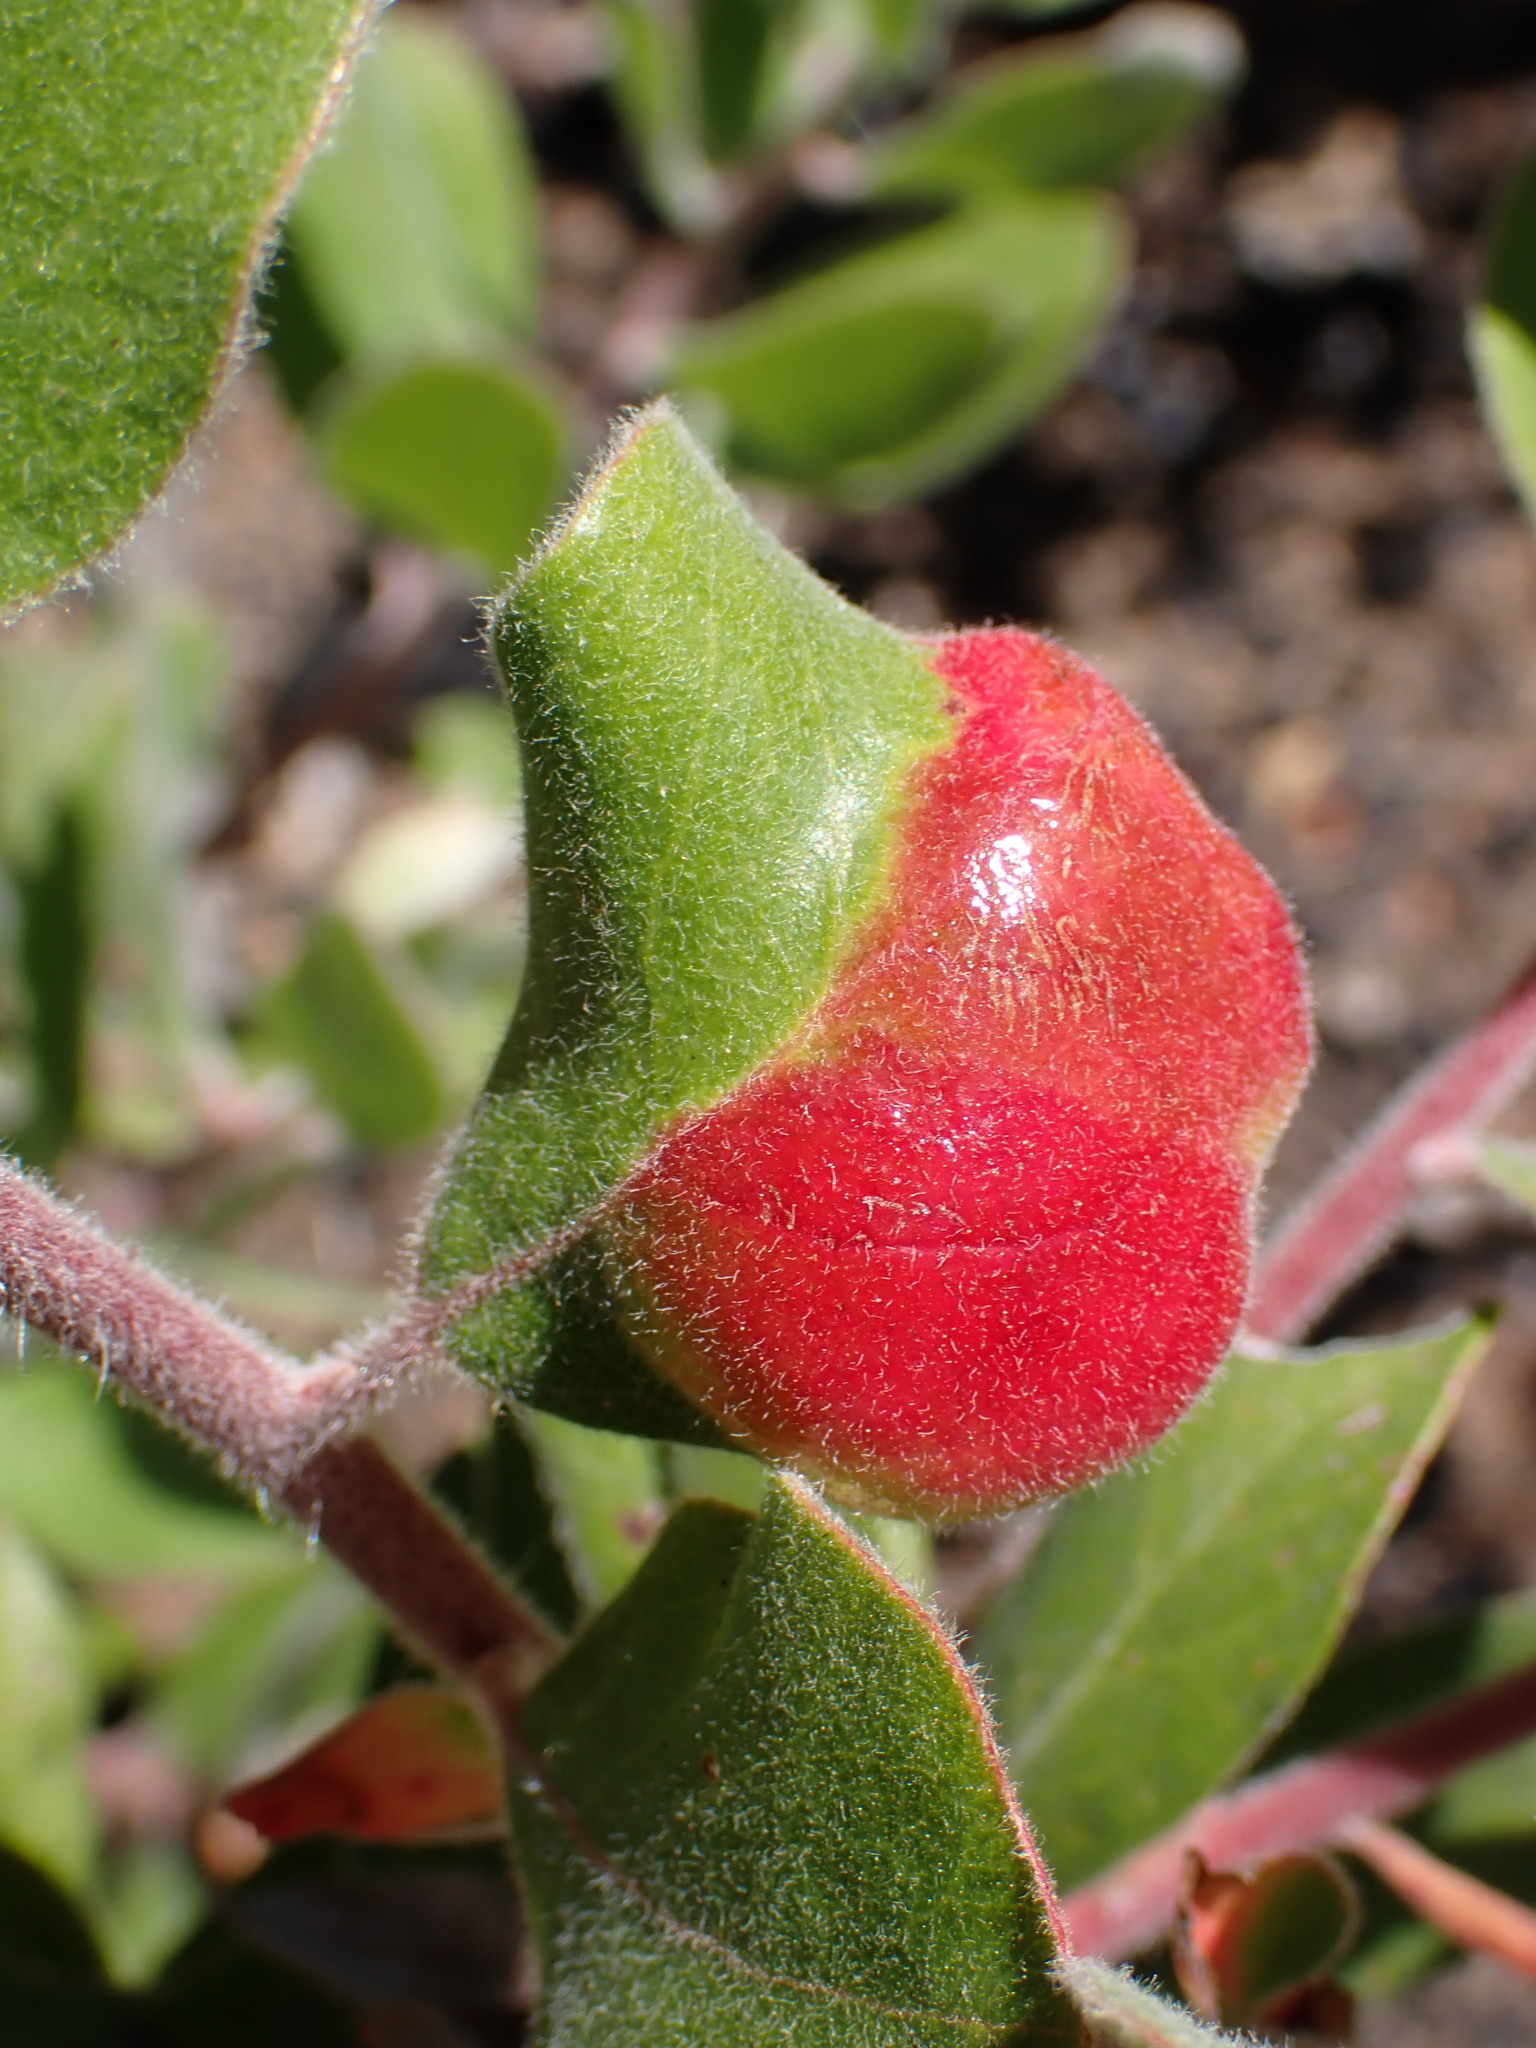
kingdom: Fungi
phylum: Basidiomycota
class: Exobasidiomycetes
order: Exobasidiales
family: Exobasidiaceae
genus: Exobasidium
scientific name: Exobasidium arctostaphyli
